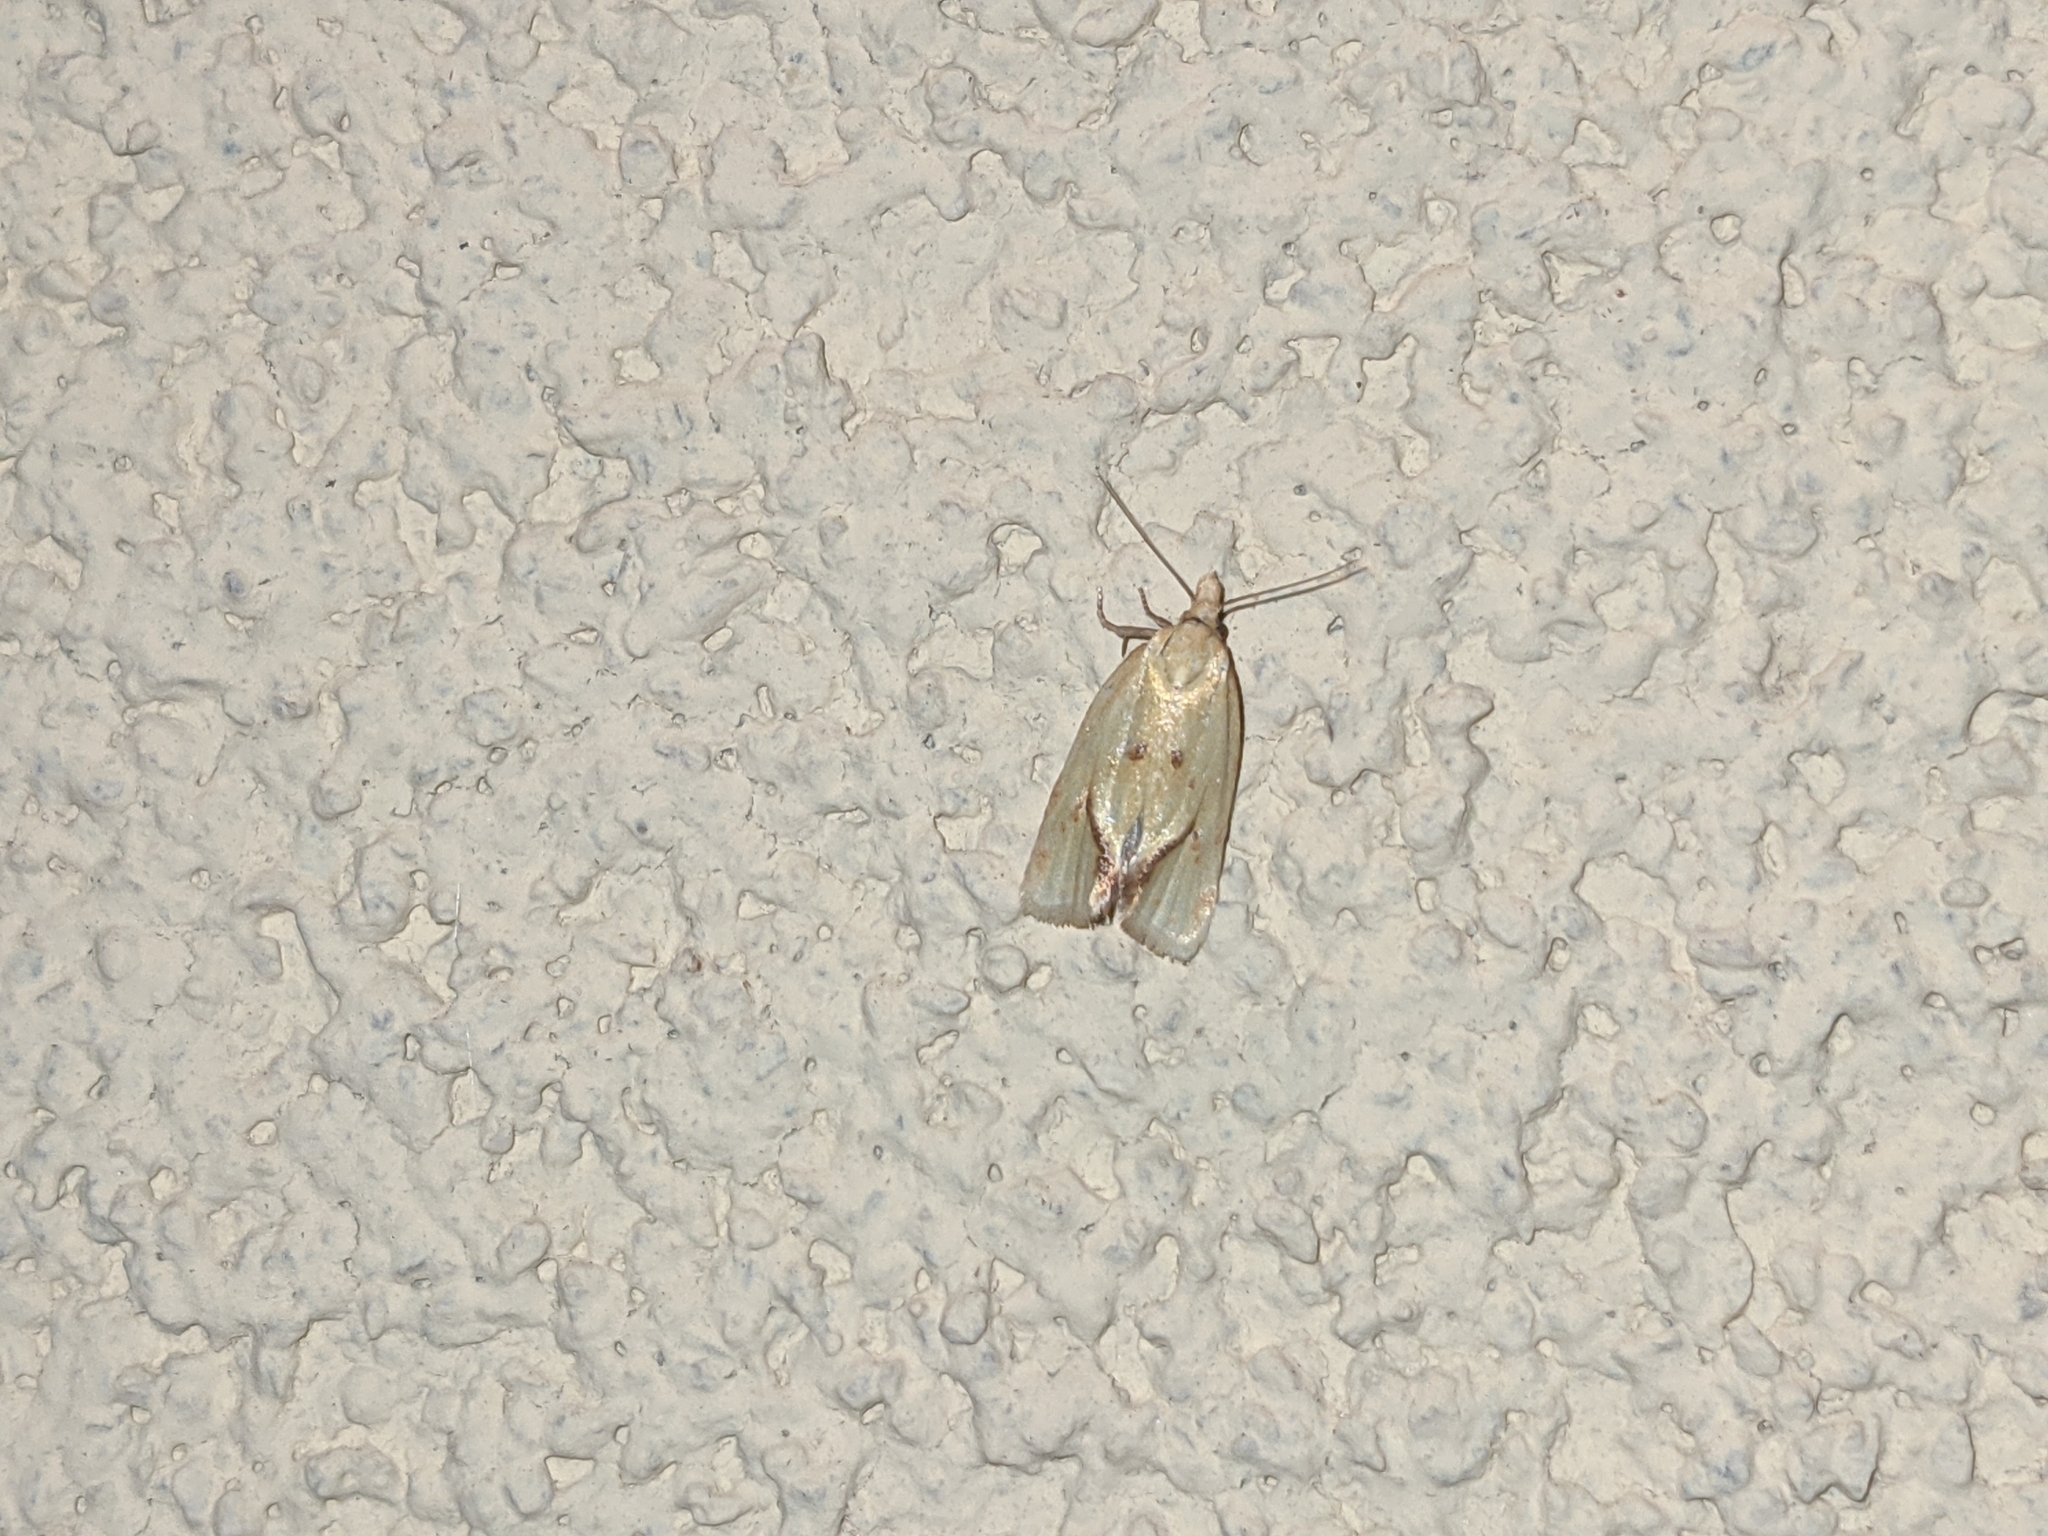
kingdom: Animalia
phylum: Arthropoda
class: Insecta
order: Lepidoptera
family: Tortricidae
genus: Agapeta
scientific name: Agapeta hamana
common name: Common yellow conch
